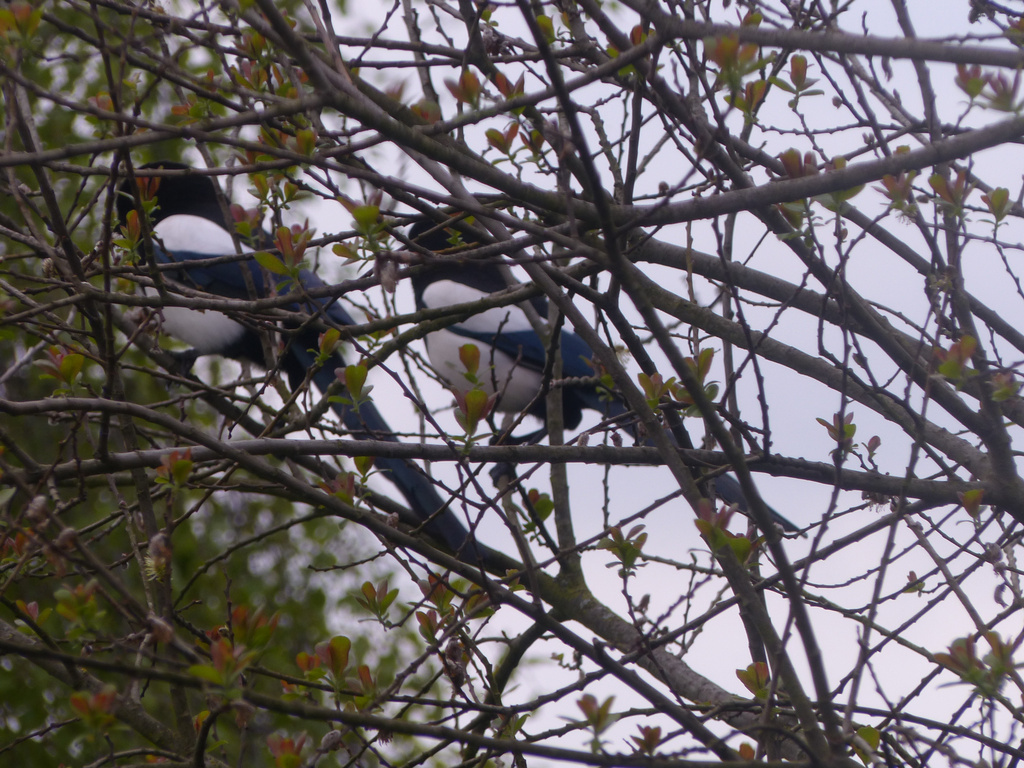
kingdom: Animalia
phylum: Chordata
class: Aves
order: Passeriformes
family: Corvidae
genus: Pica
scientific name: Pica pica
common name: Eurasian magpie
